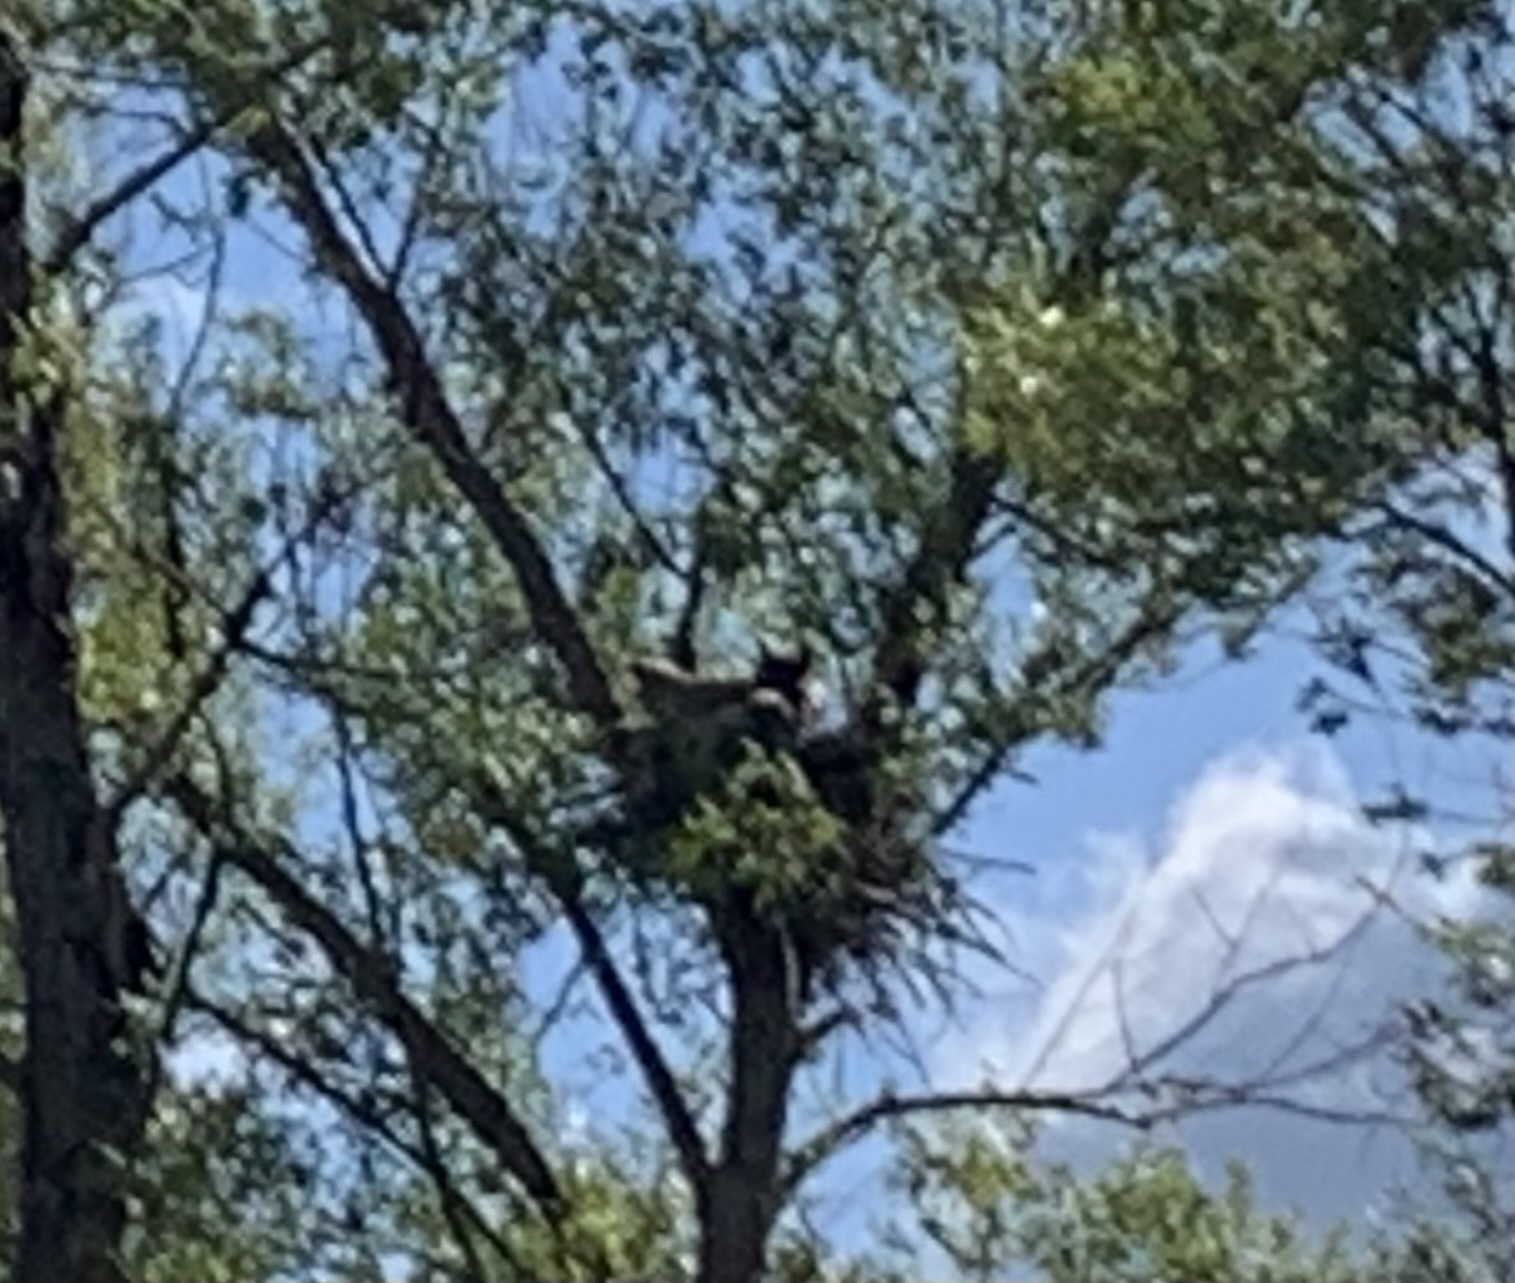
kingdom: Animalia
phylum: Chordata
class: Aves
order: Strigiformes
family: Strigidae
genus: Bubo
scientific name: Bubo virginianus
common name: Great horned owl
